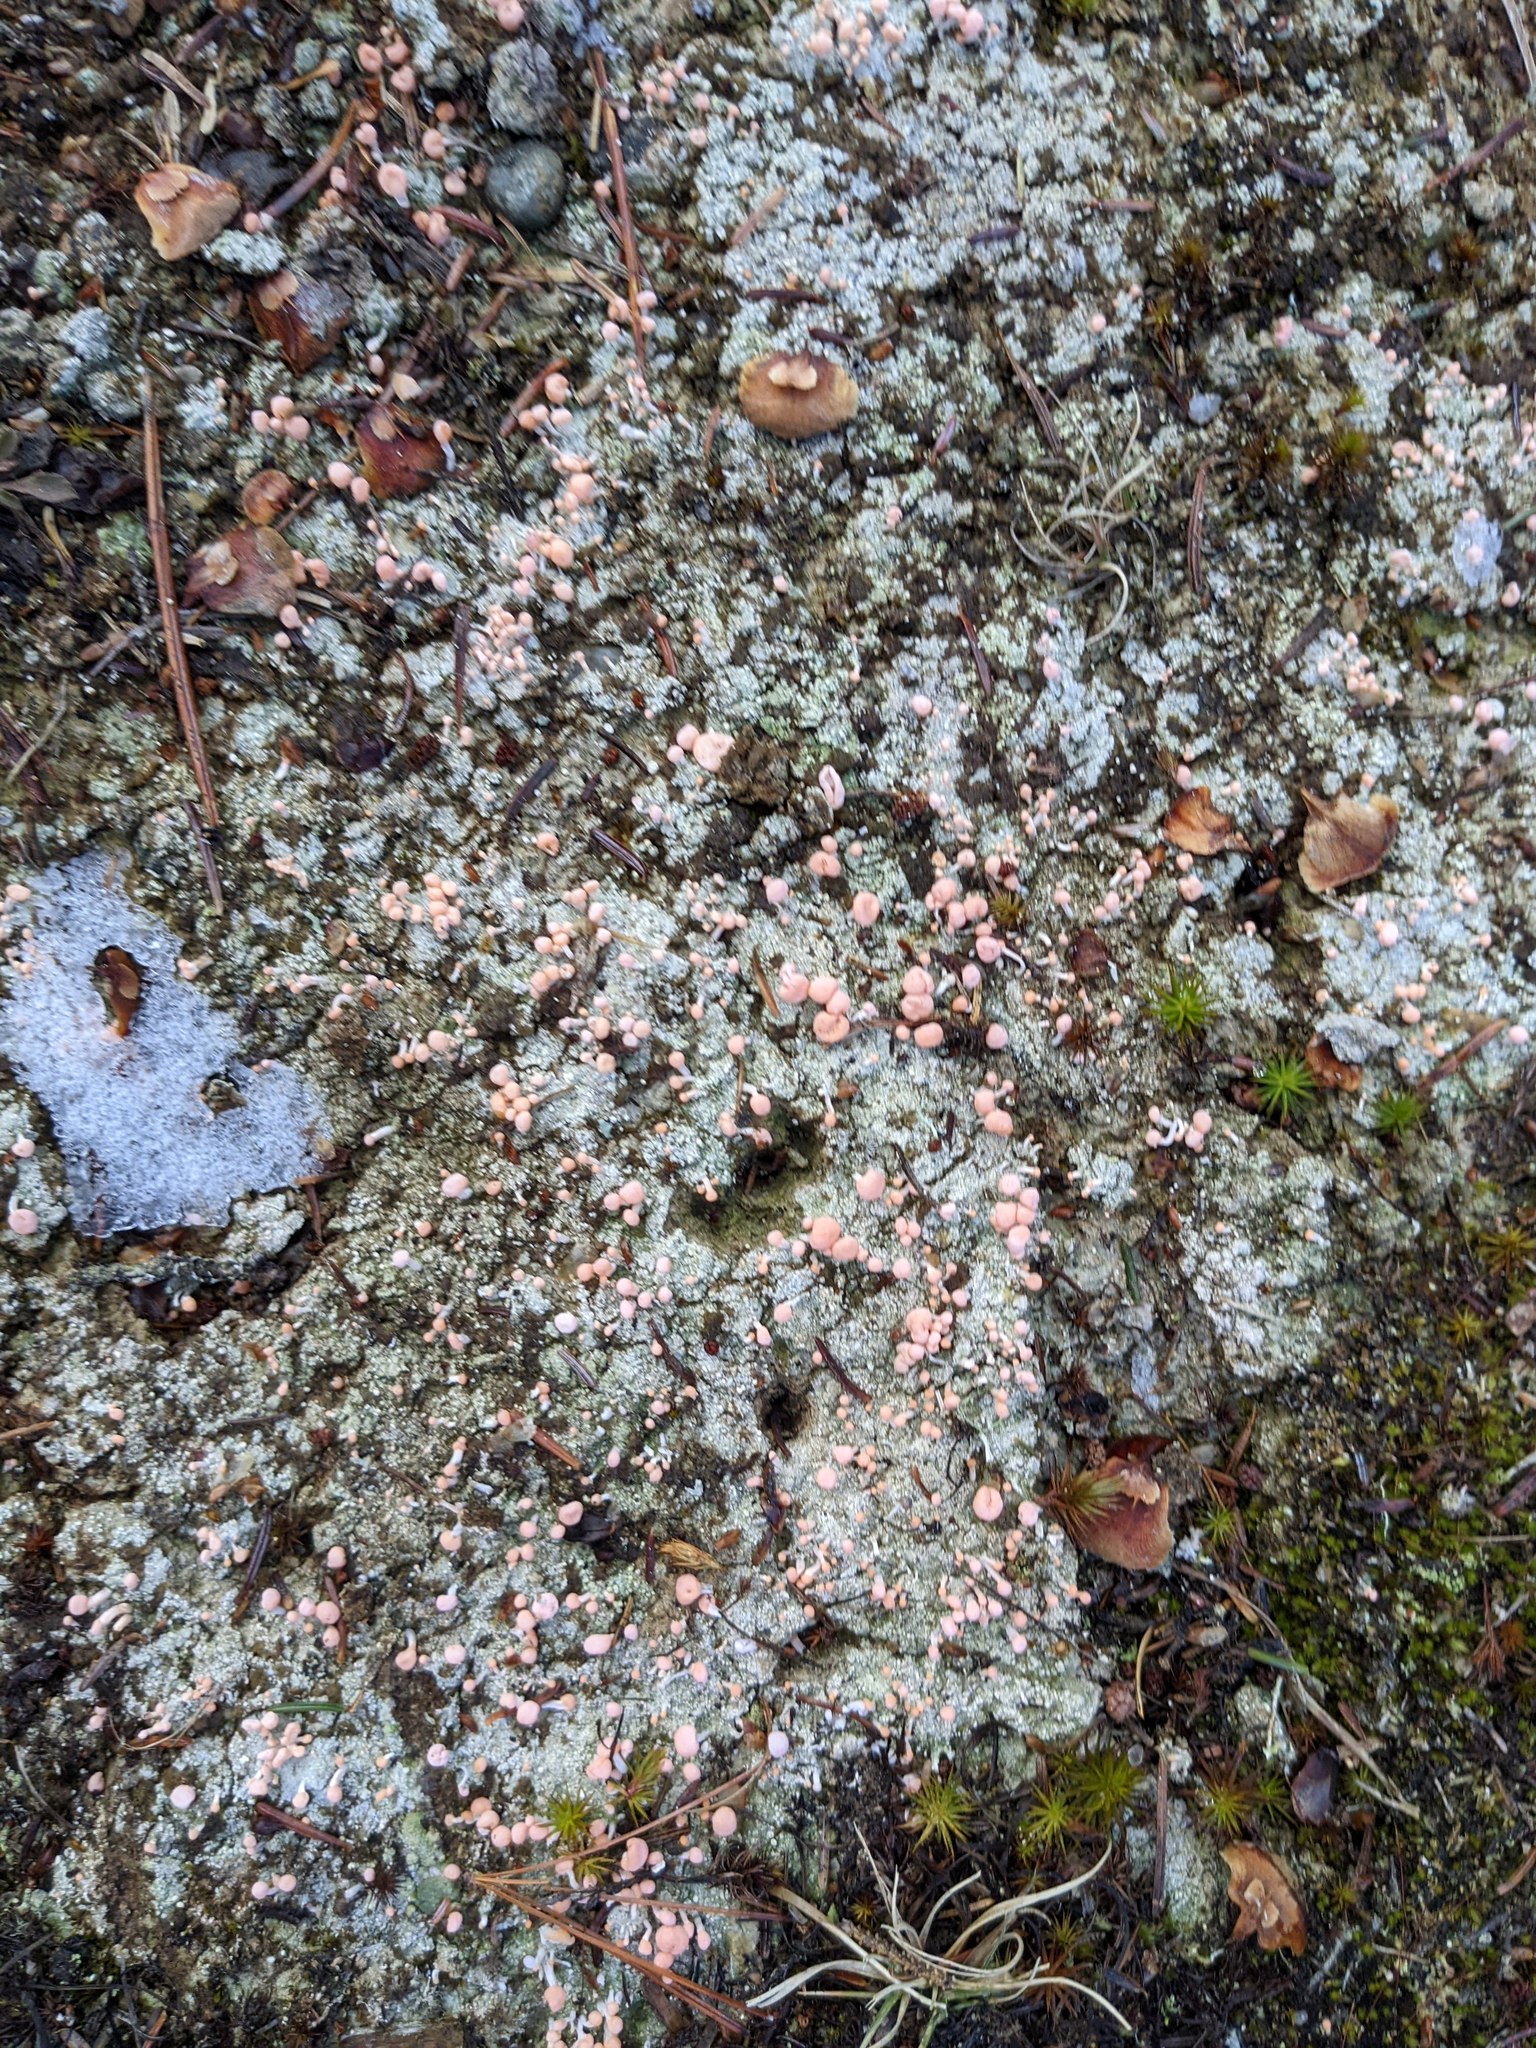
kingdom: Fungi
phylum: Ascomycota
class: Lecanoromycetes
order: Pertusariales
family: Icmadophilaceae
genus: Dibaeis
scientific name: Dibaeis baeomyces
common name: Pink earth lichen
